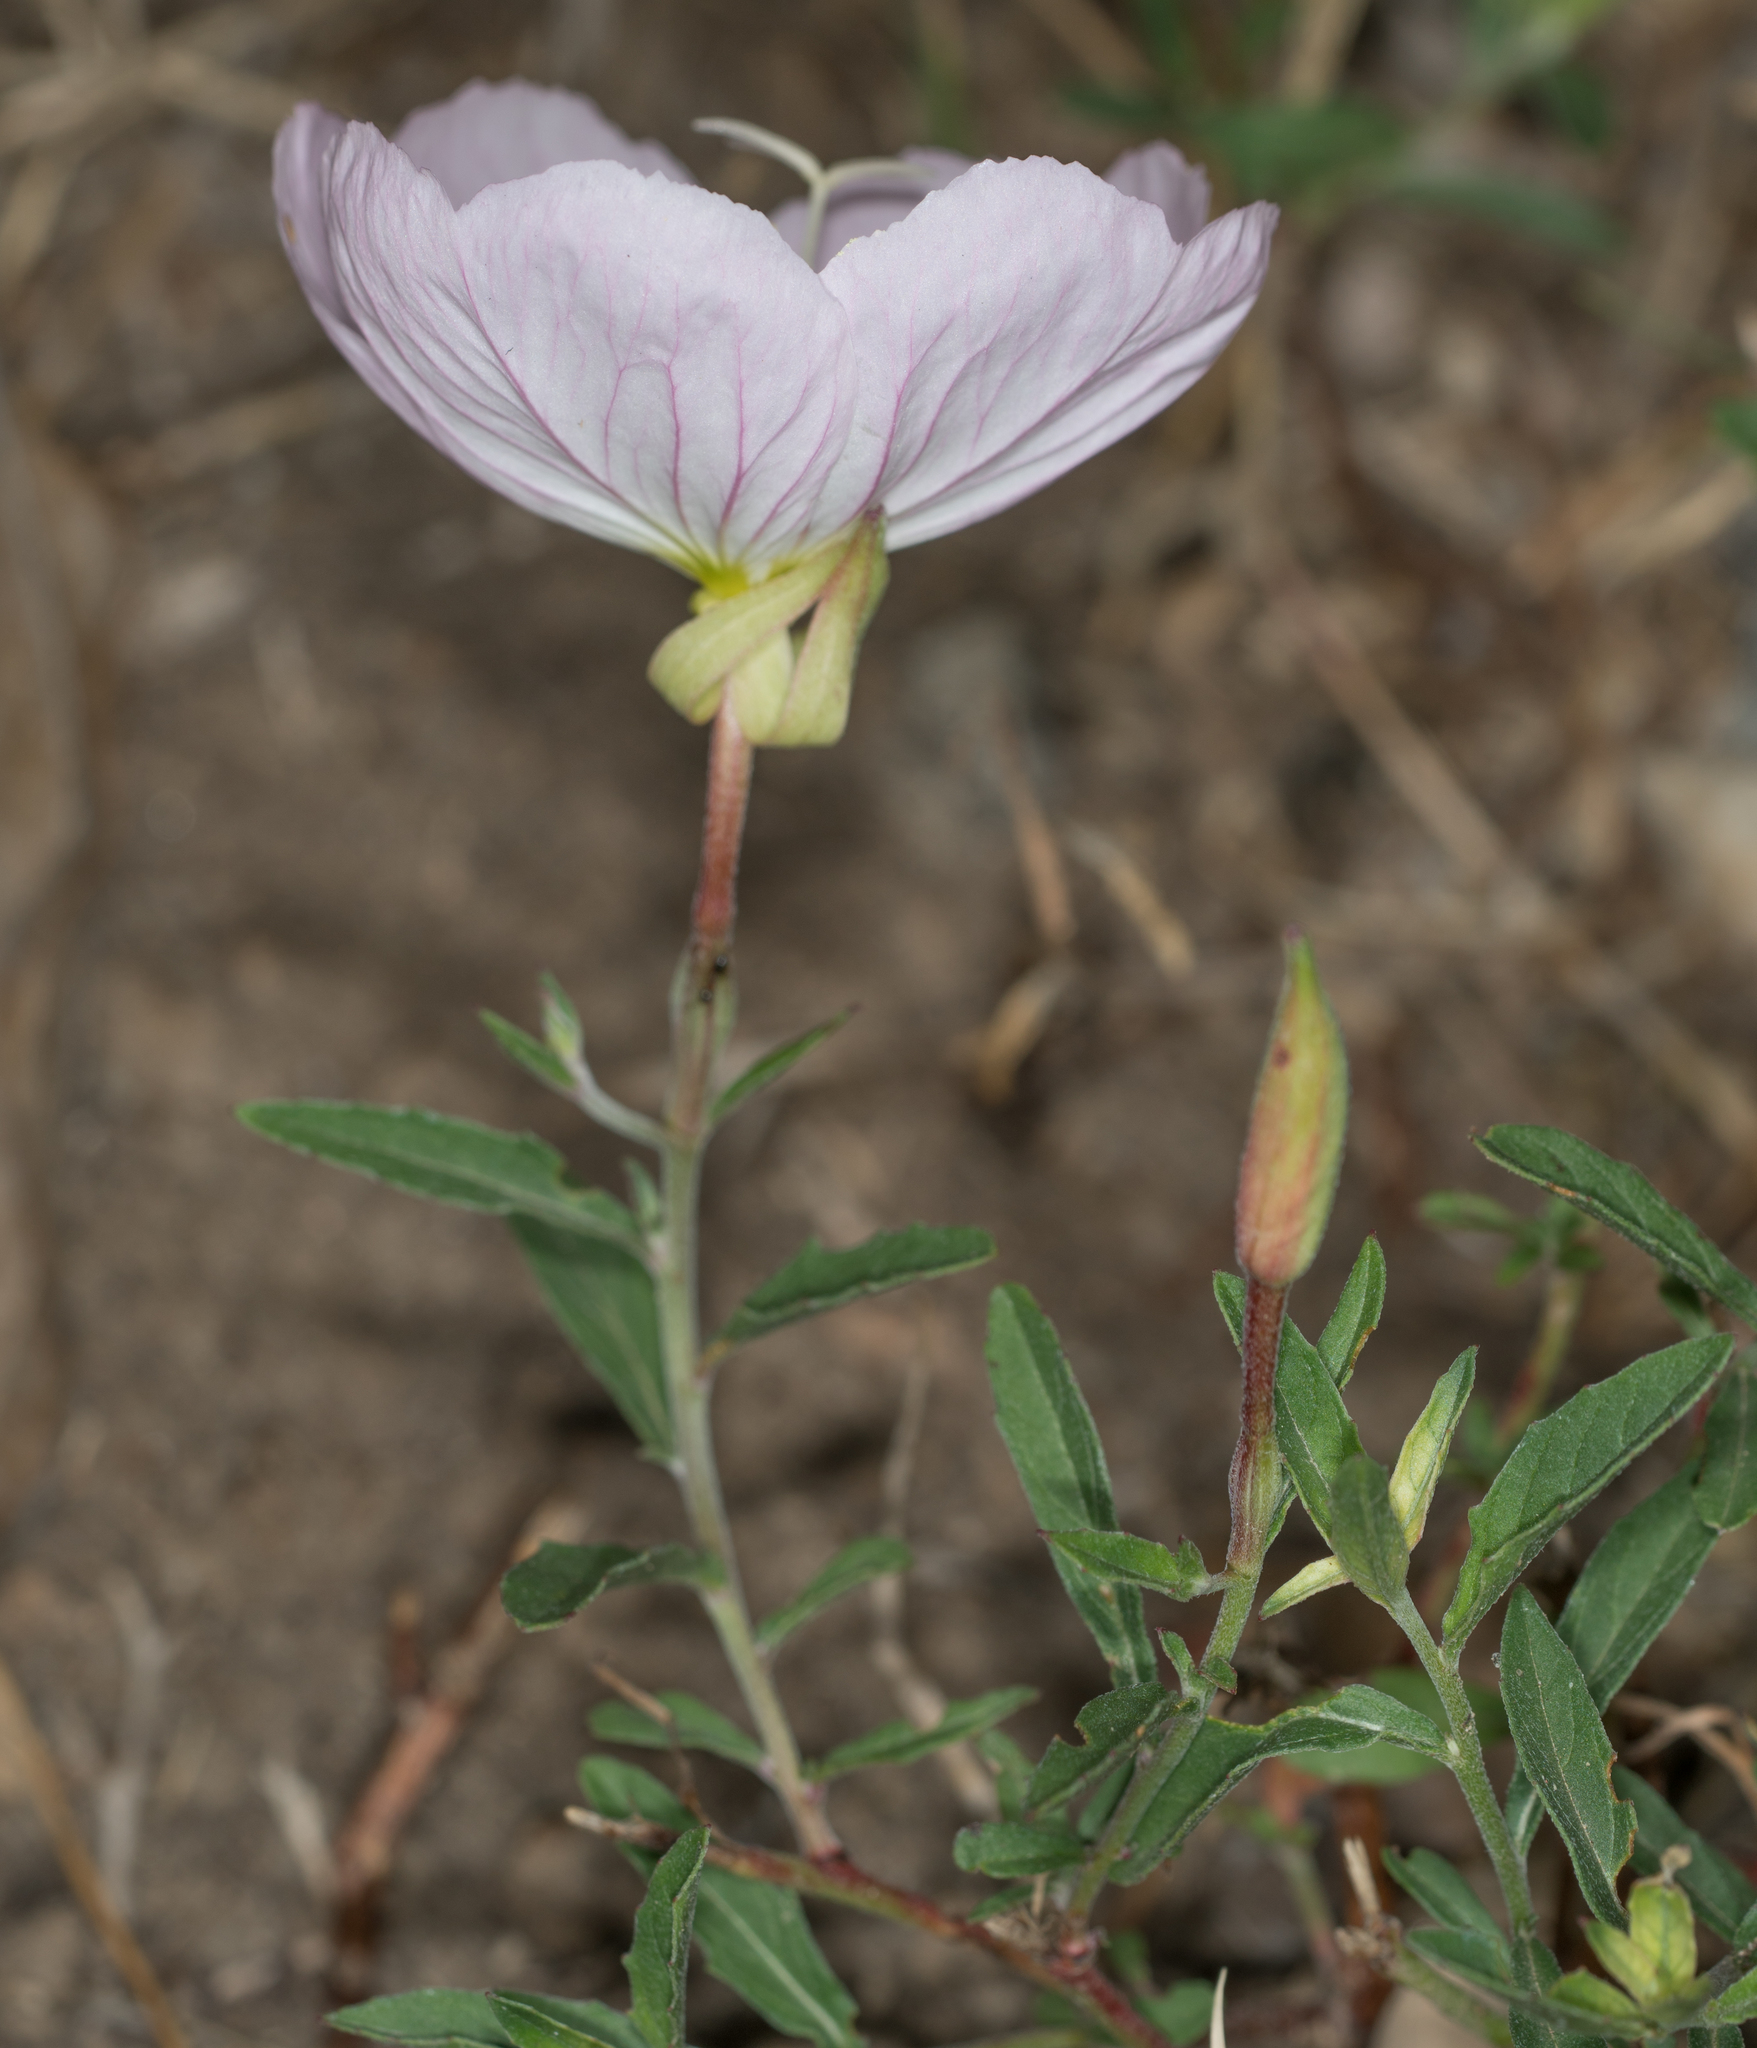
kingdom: Plantae
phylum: Tracheophyta
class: Magnoliopsida
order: Myrtales
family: Onagraceae
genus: Oenothera
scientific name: Oenothera speciosa
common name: White evening-primrose
